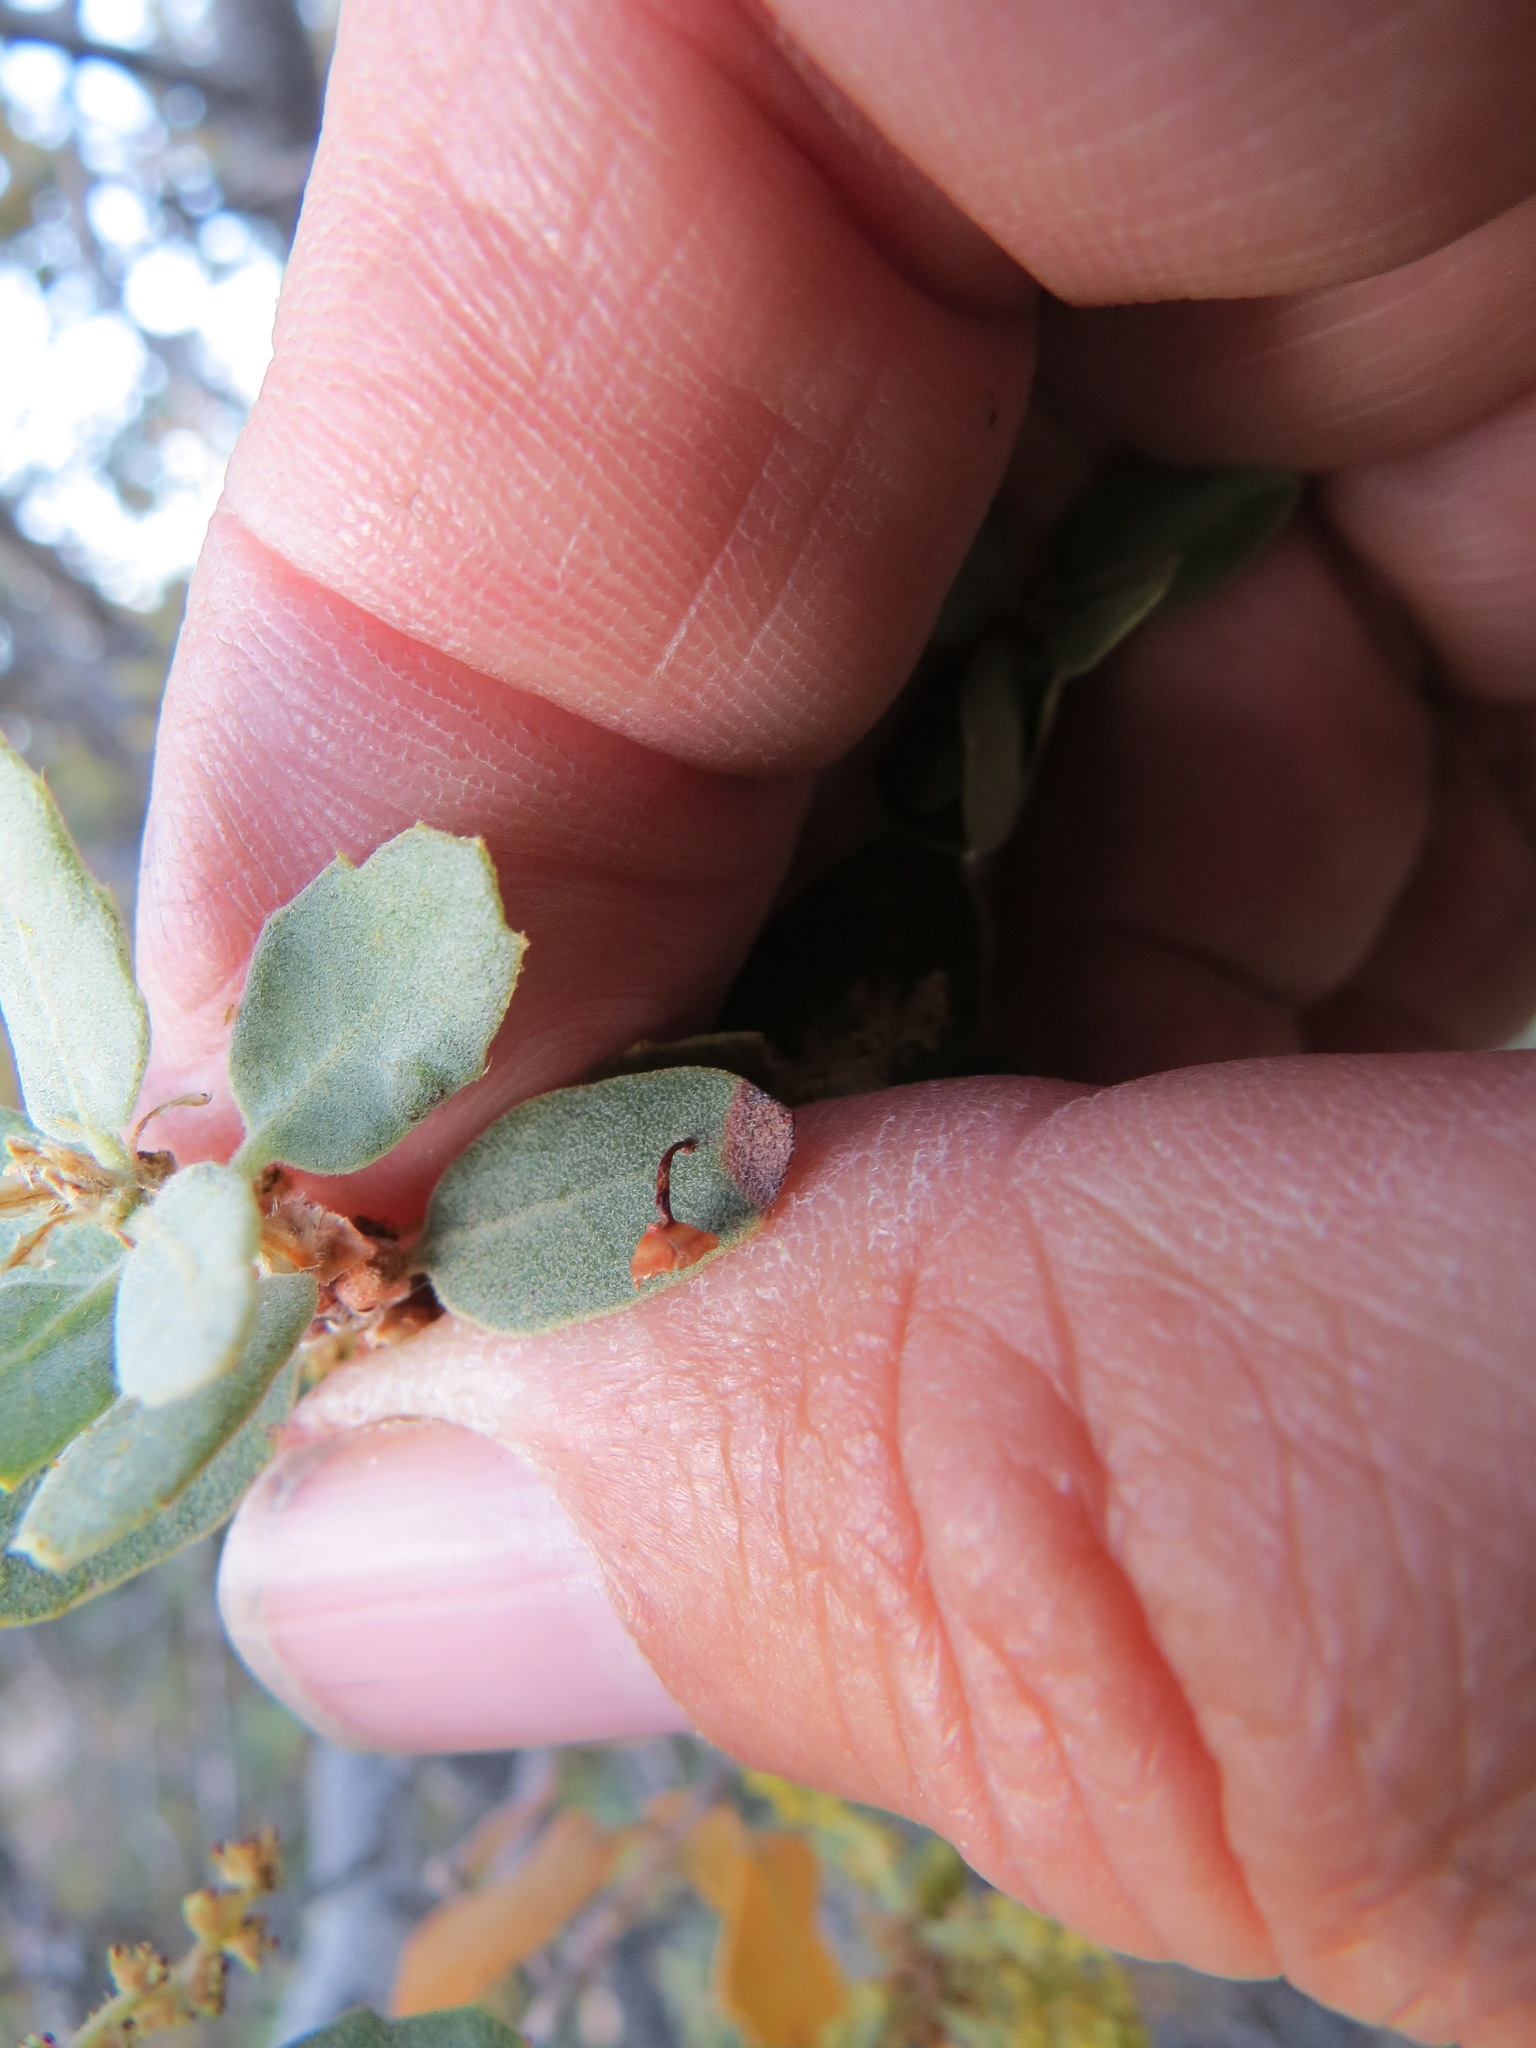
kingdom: Animalia
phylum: Arthropoda
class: Insecta
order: Hymenoptera
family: Cynipidae
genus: Andricus
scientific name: Andricus
